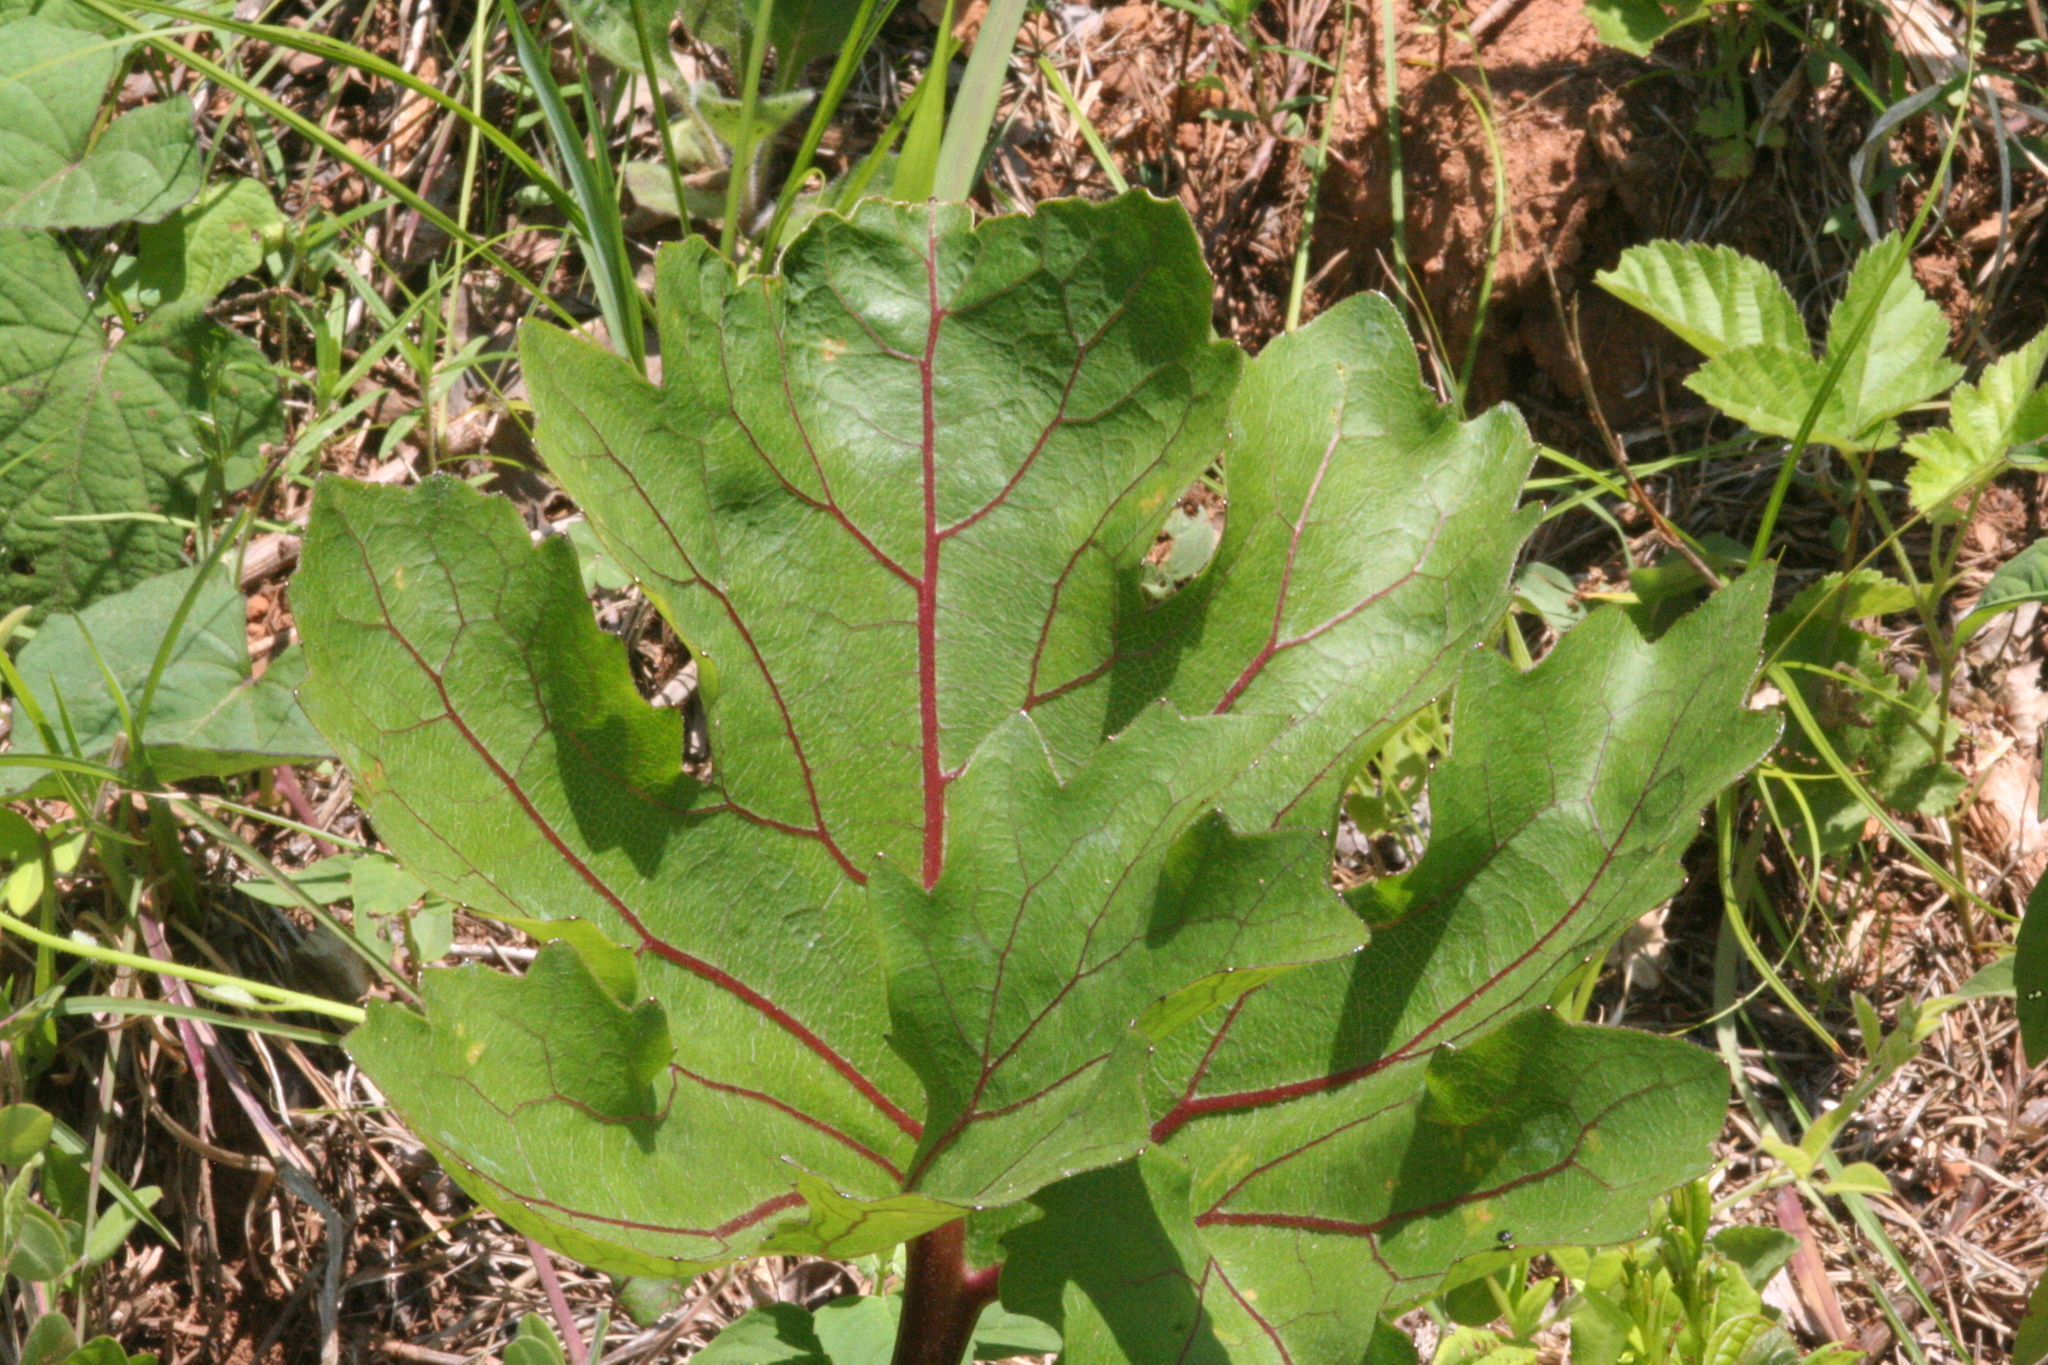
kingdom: Plantae
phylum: Tracheophyta
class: Magnoliopsida
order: Asterales
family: Asteraceae
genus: Silphium
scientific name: Silphium compositum
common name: Lesser basal-leaf rosinweed
